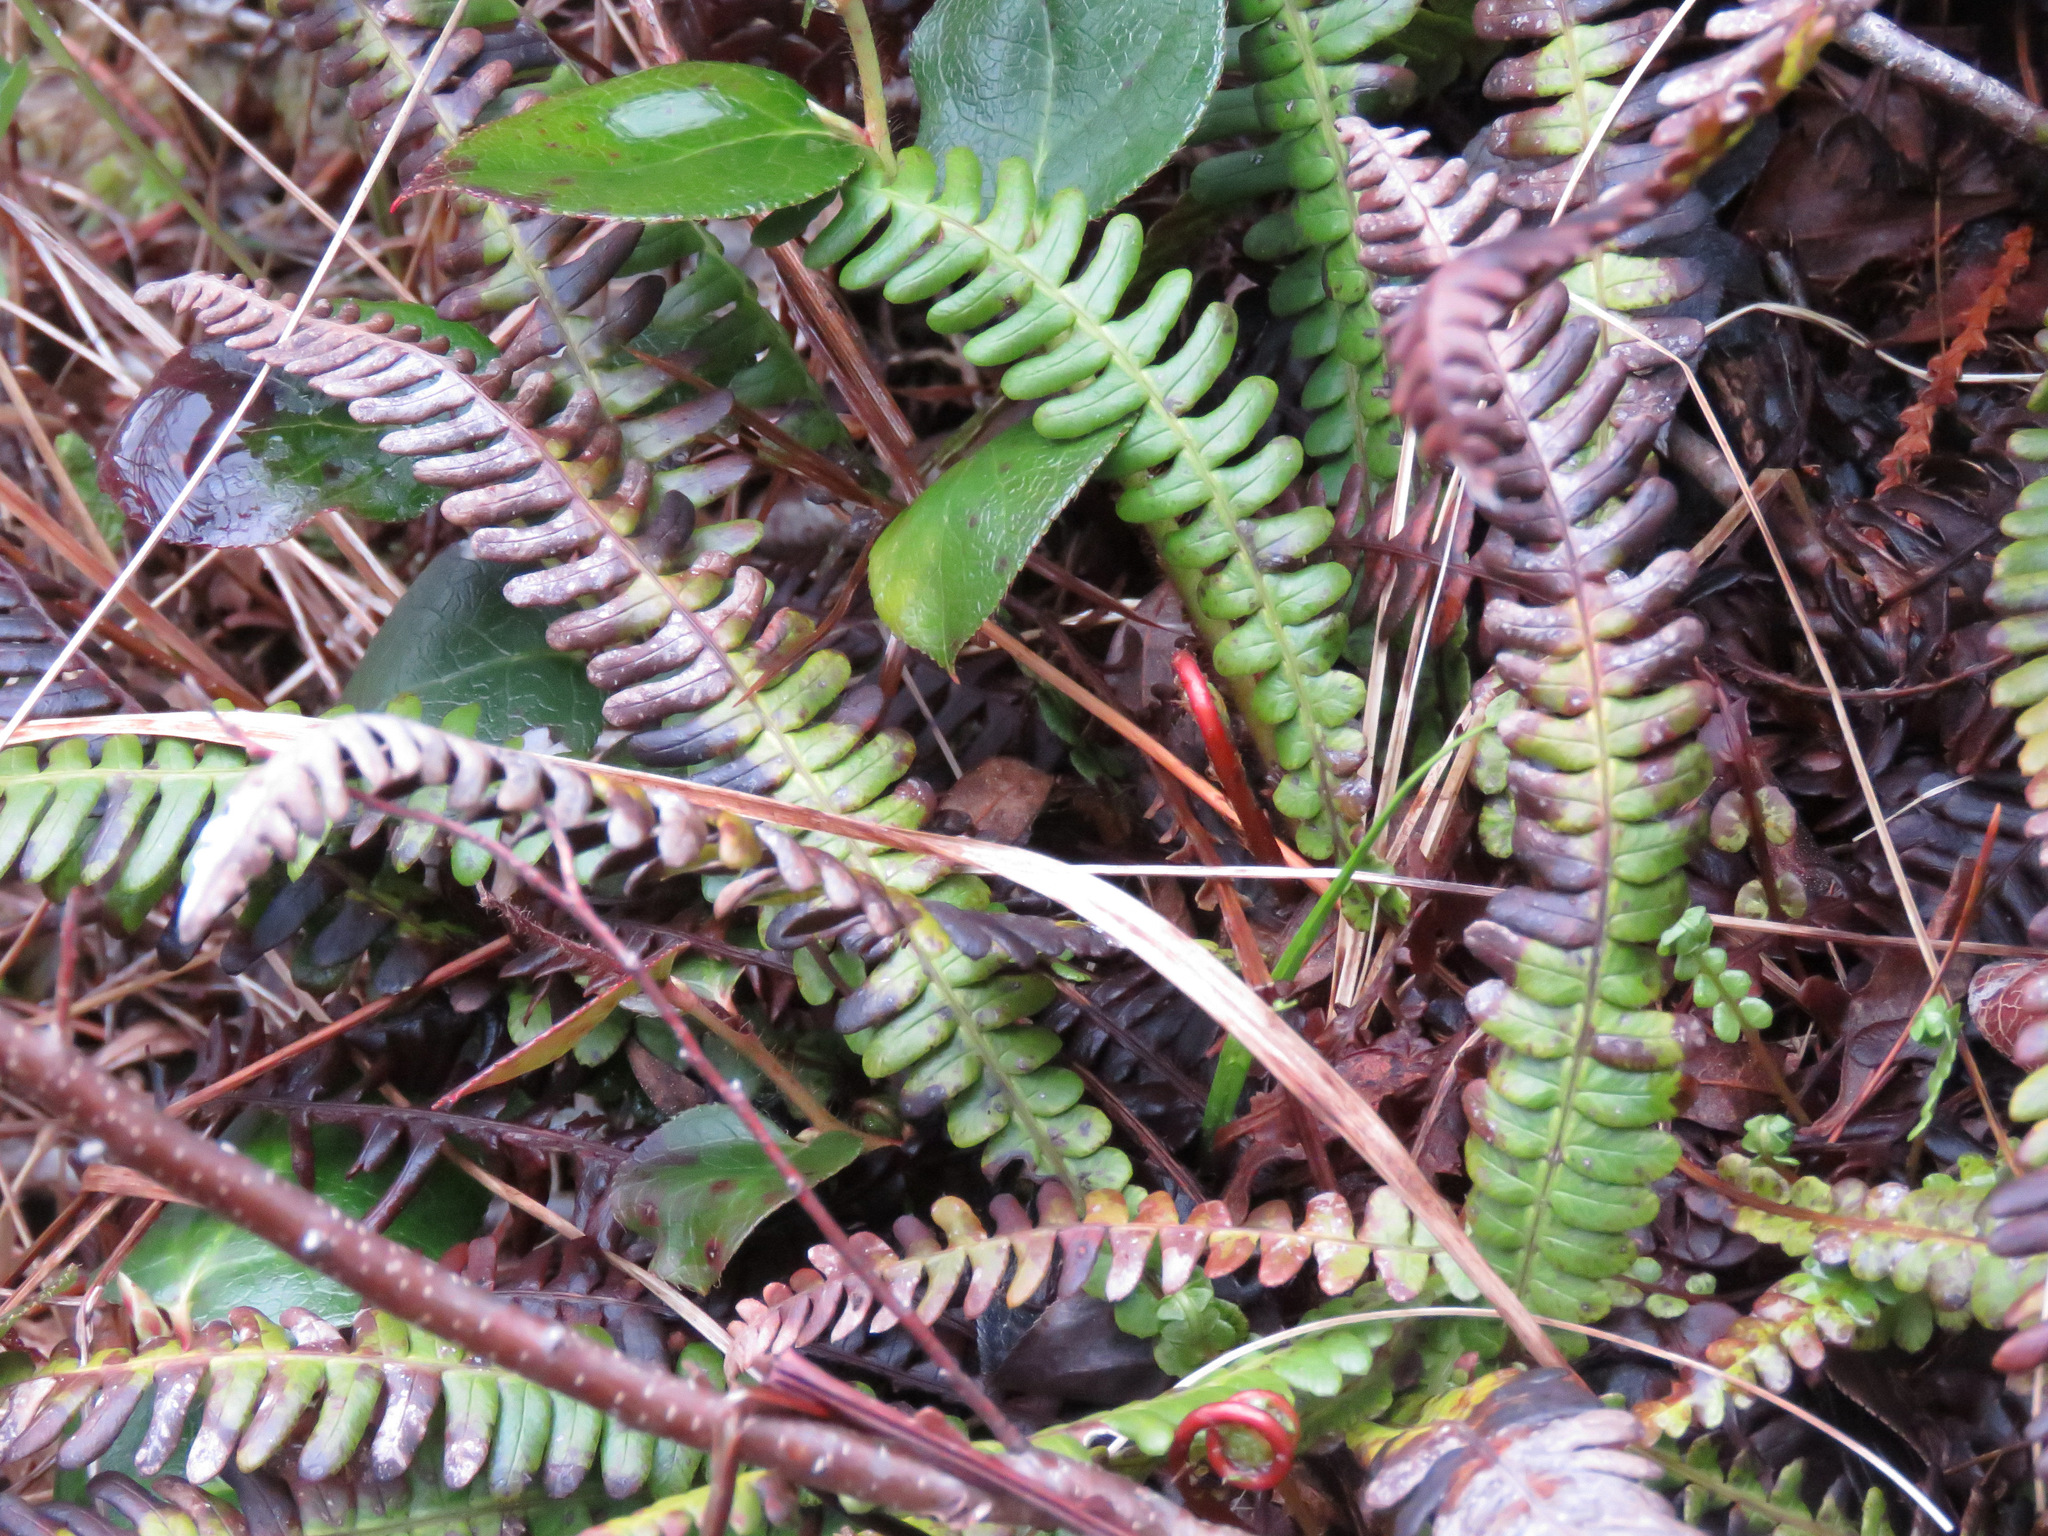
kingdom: Plantae
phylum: Tracheophyta
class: Polypodiopsida
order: Polypodiales
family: Blechnaceae
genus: Struthiopteris
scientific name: Struthiopteris spicant
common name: Deer fern
